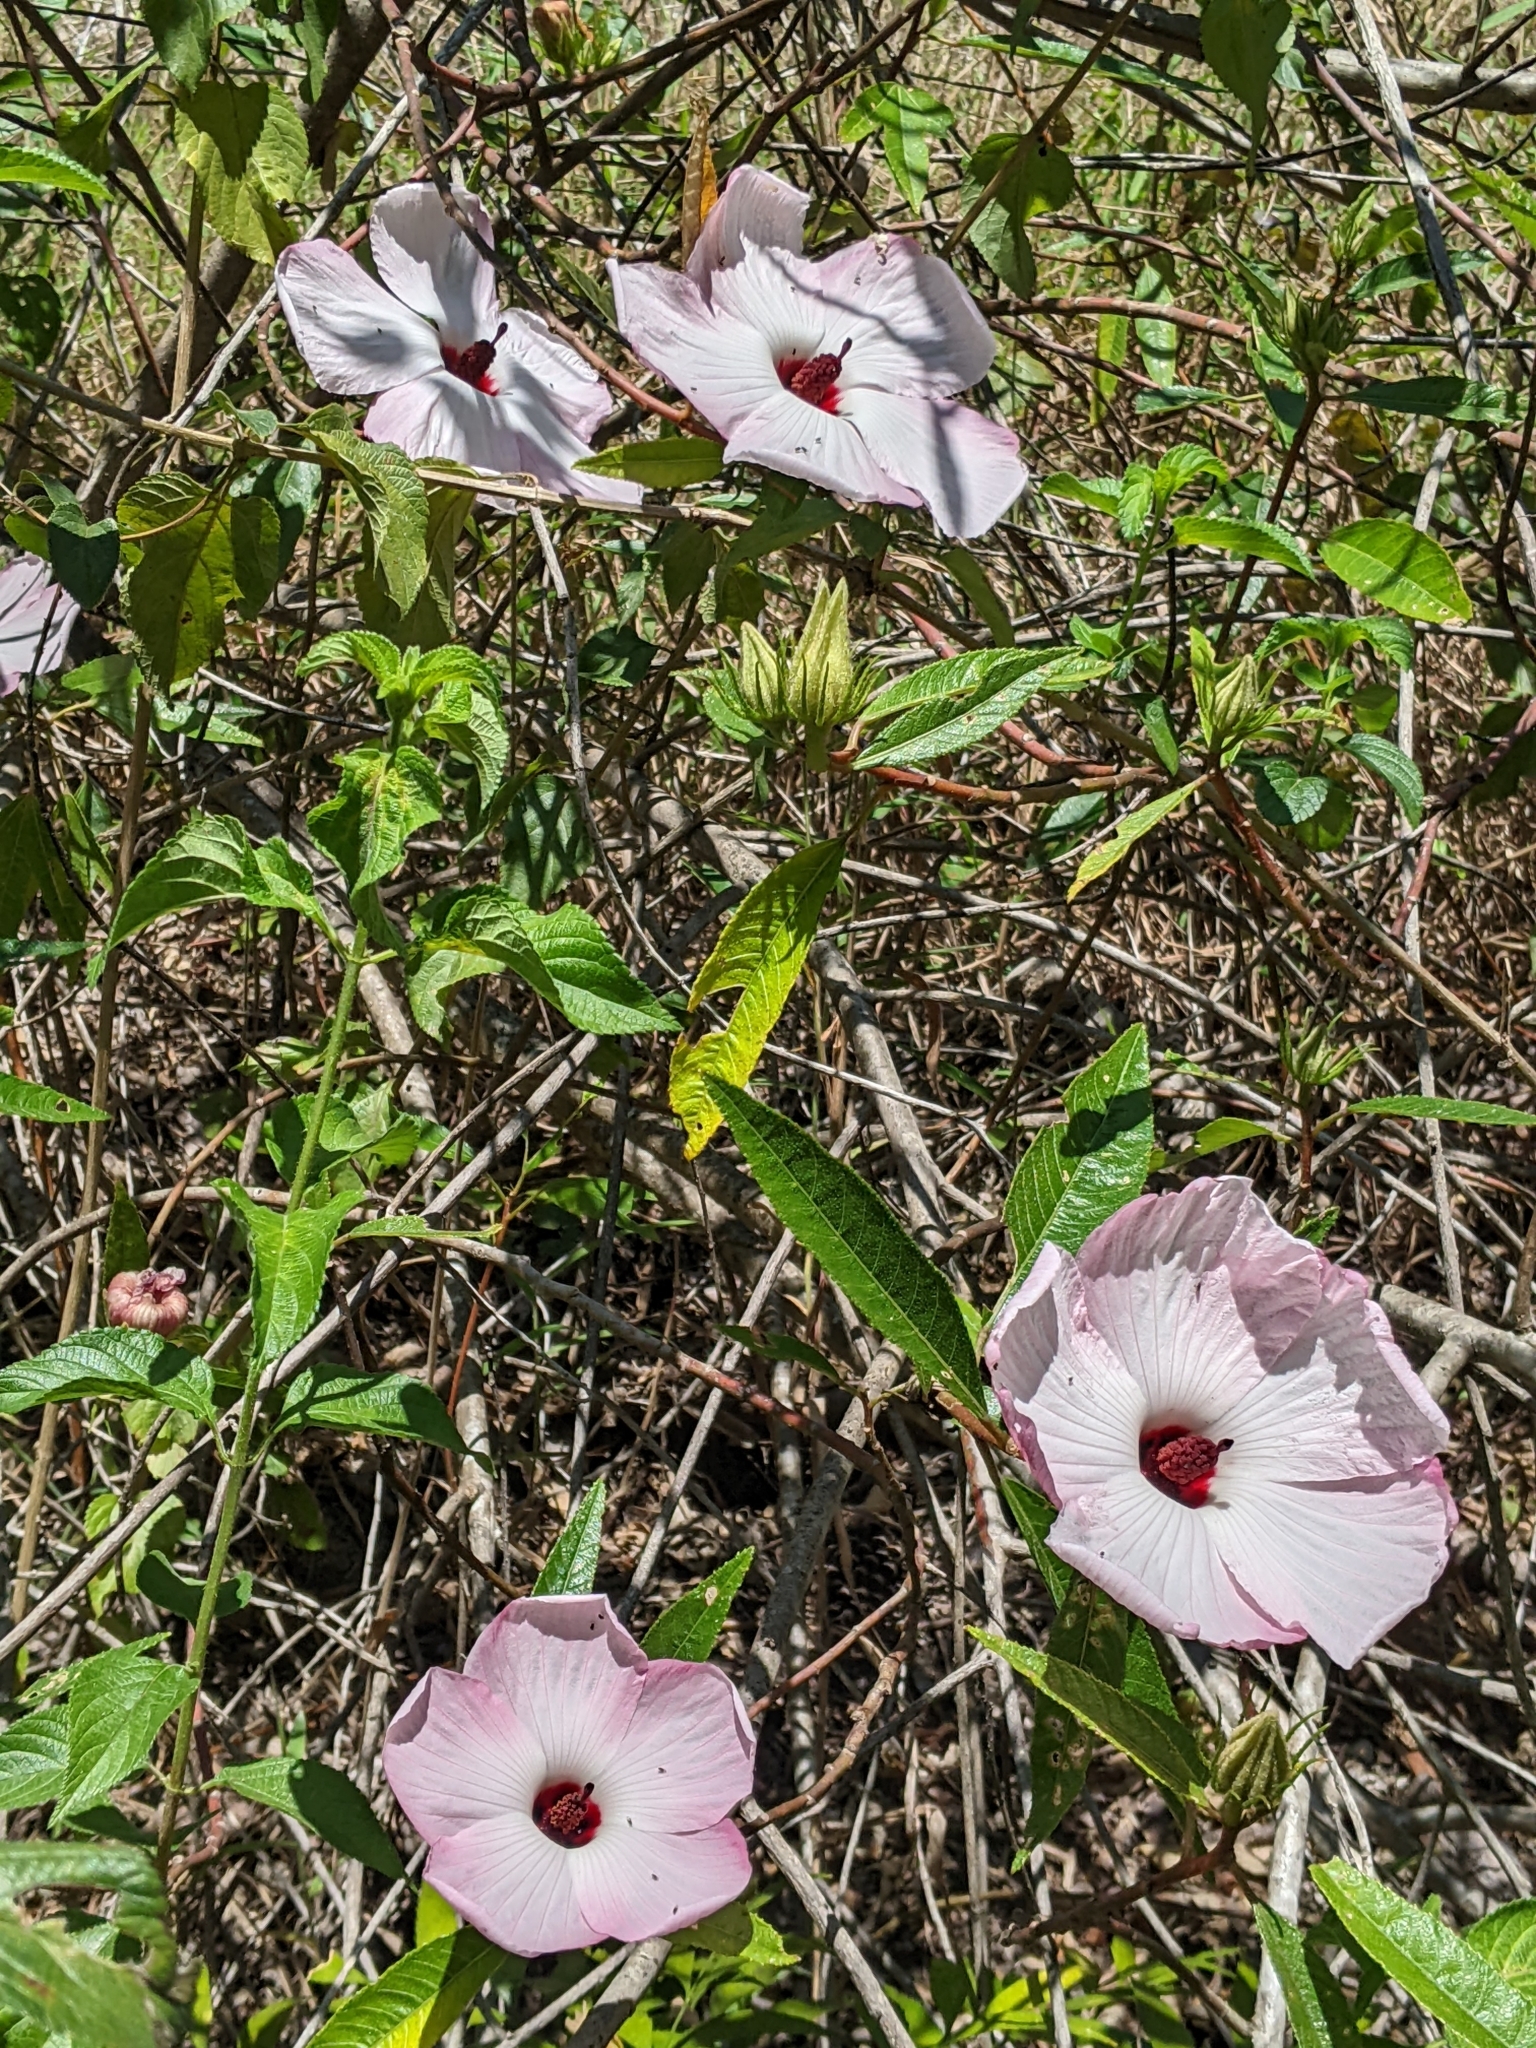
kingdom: Plantae
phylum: Tracheophyta
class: Magnoliopsida
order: Malvales
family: Malvaceae
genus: Hibiscus
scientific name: Hibiscus heterophyllus
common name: Queensland-sorrel
